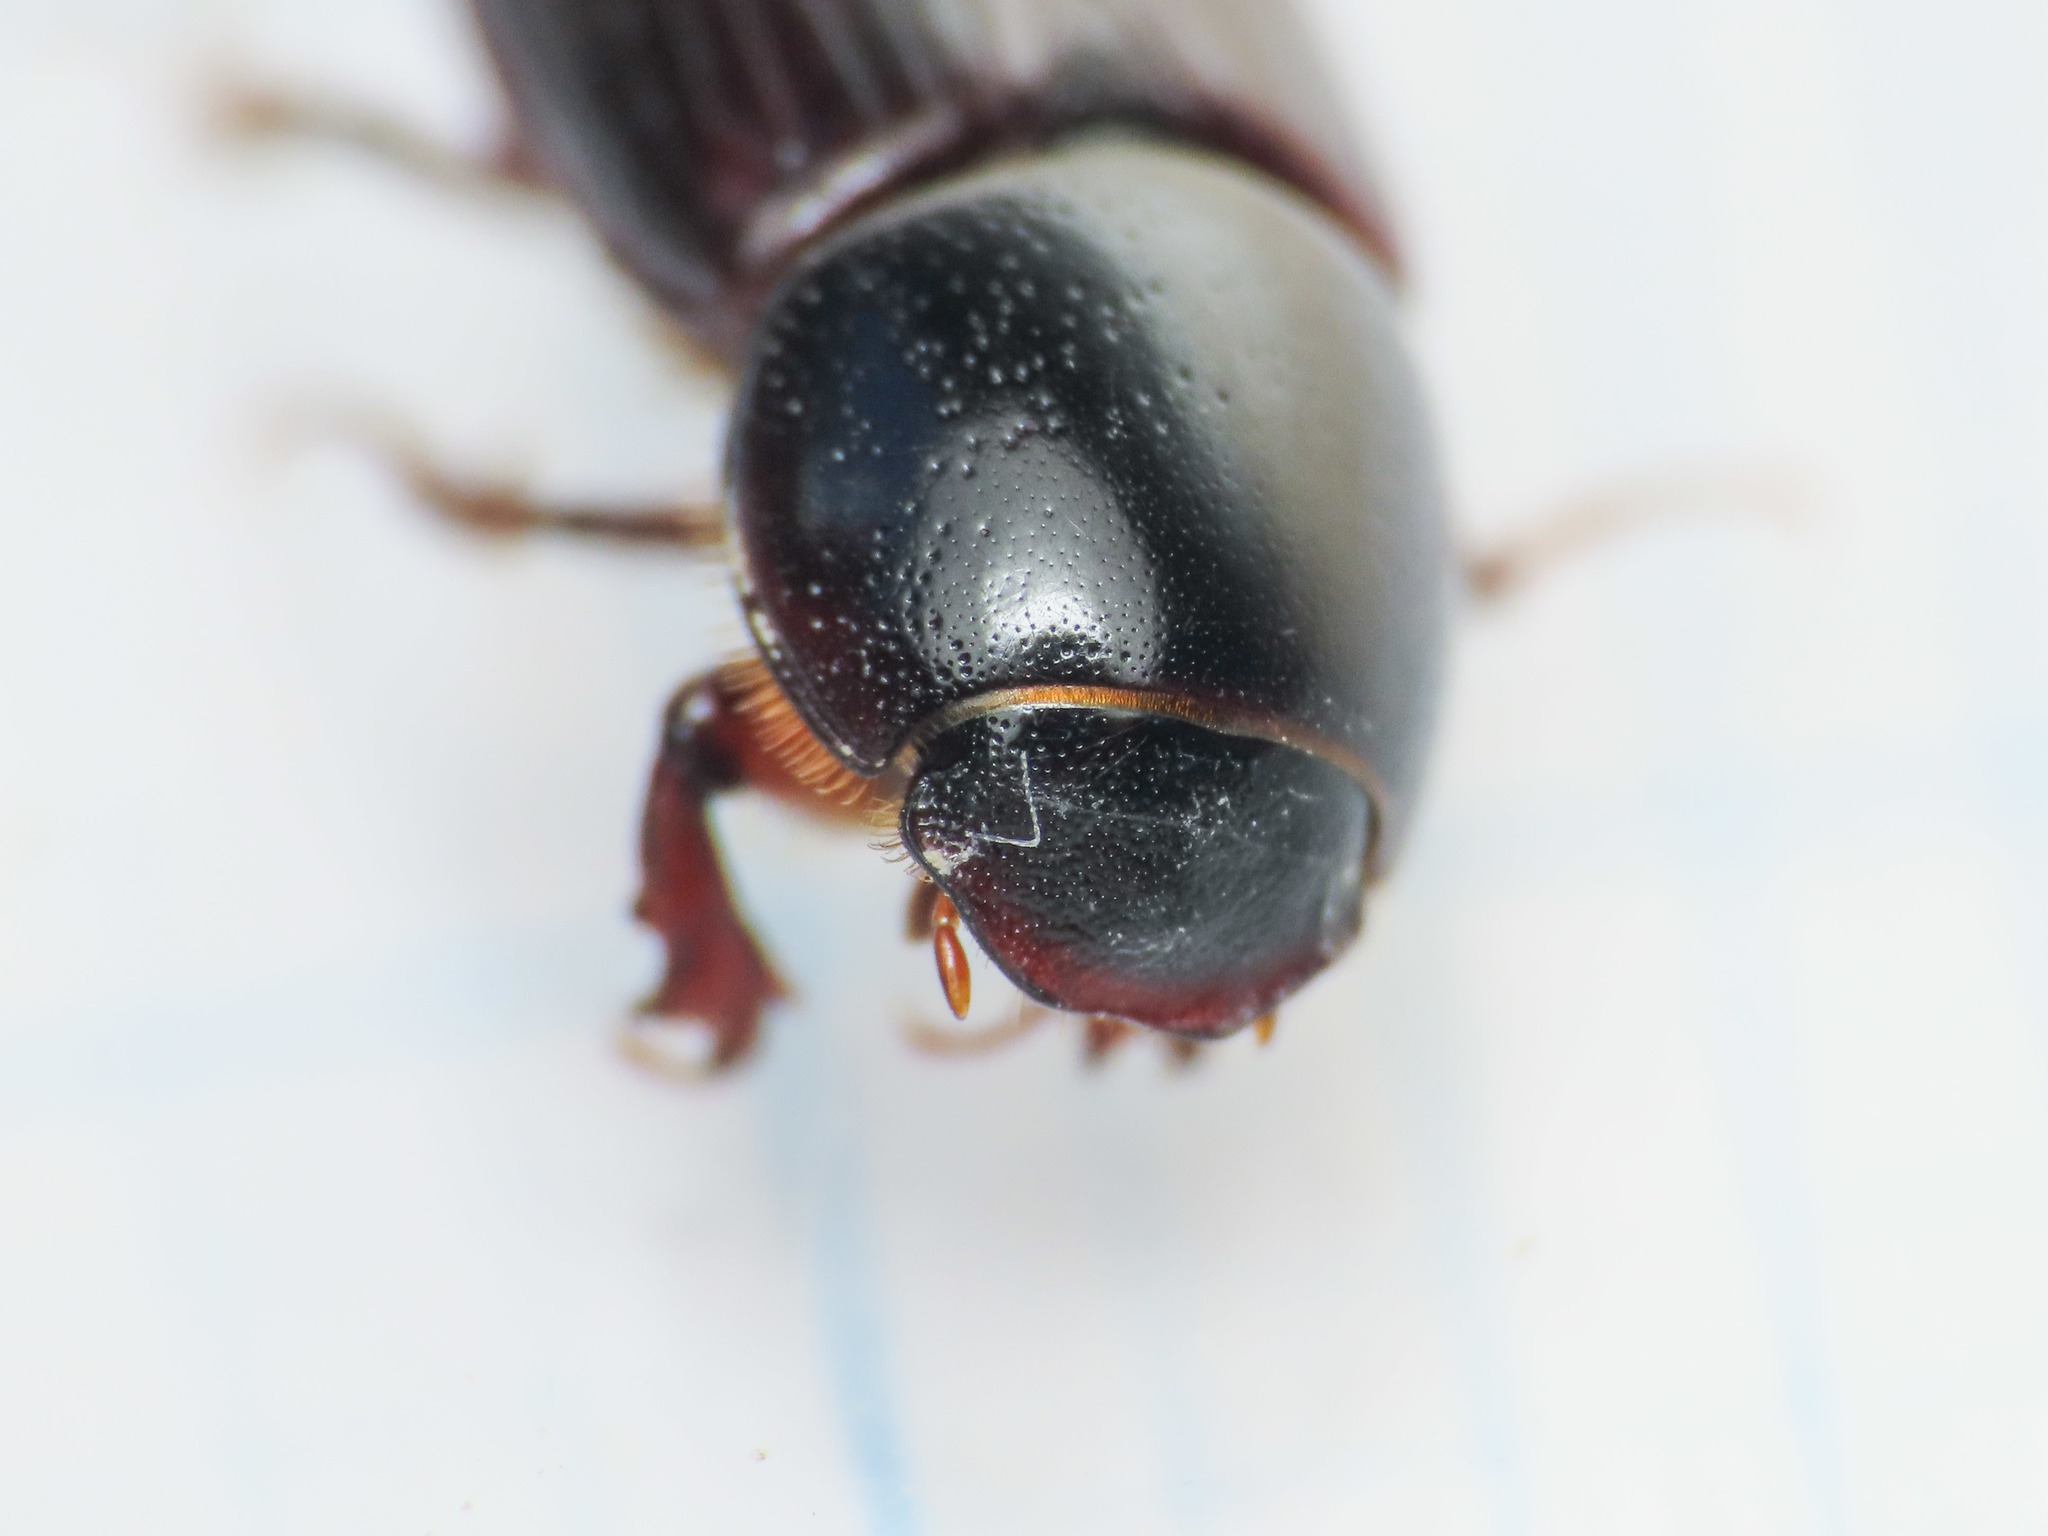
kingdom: Animalia
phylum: Arthropoda
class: Insecta
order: Coleoptera
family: Scarabaeidae
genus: Loraphodius
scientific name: Loraphodius suarius
